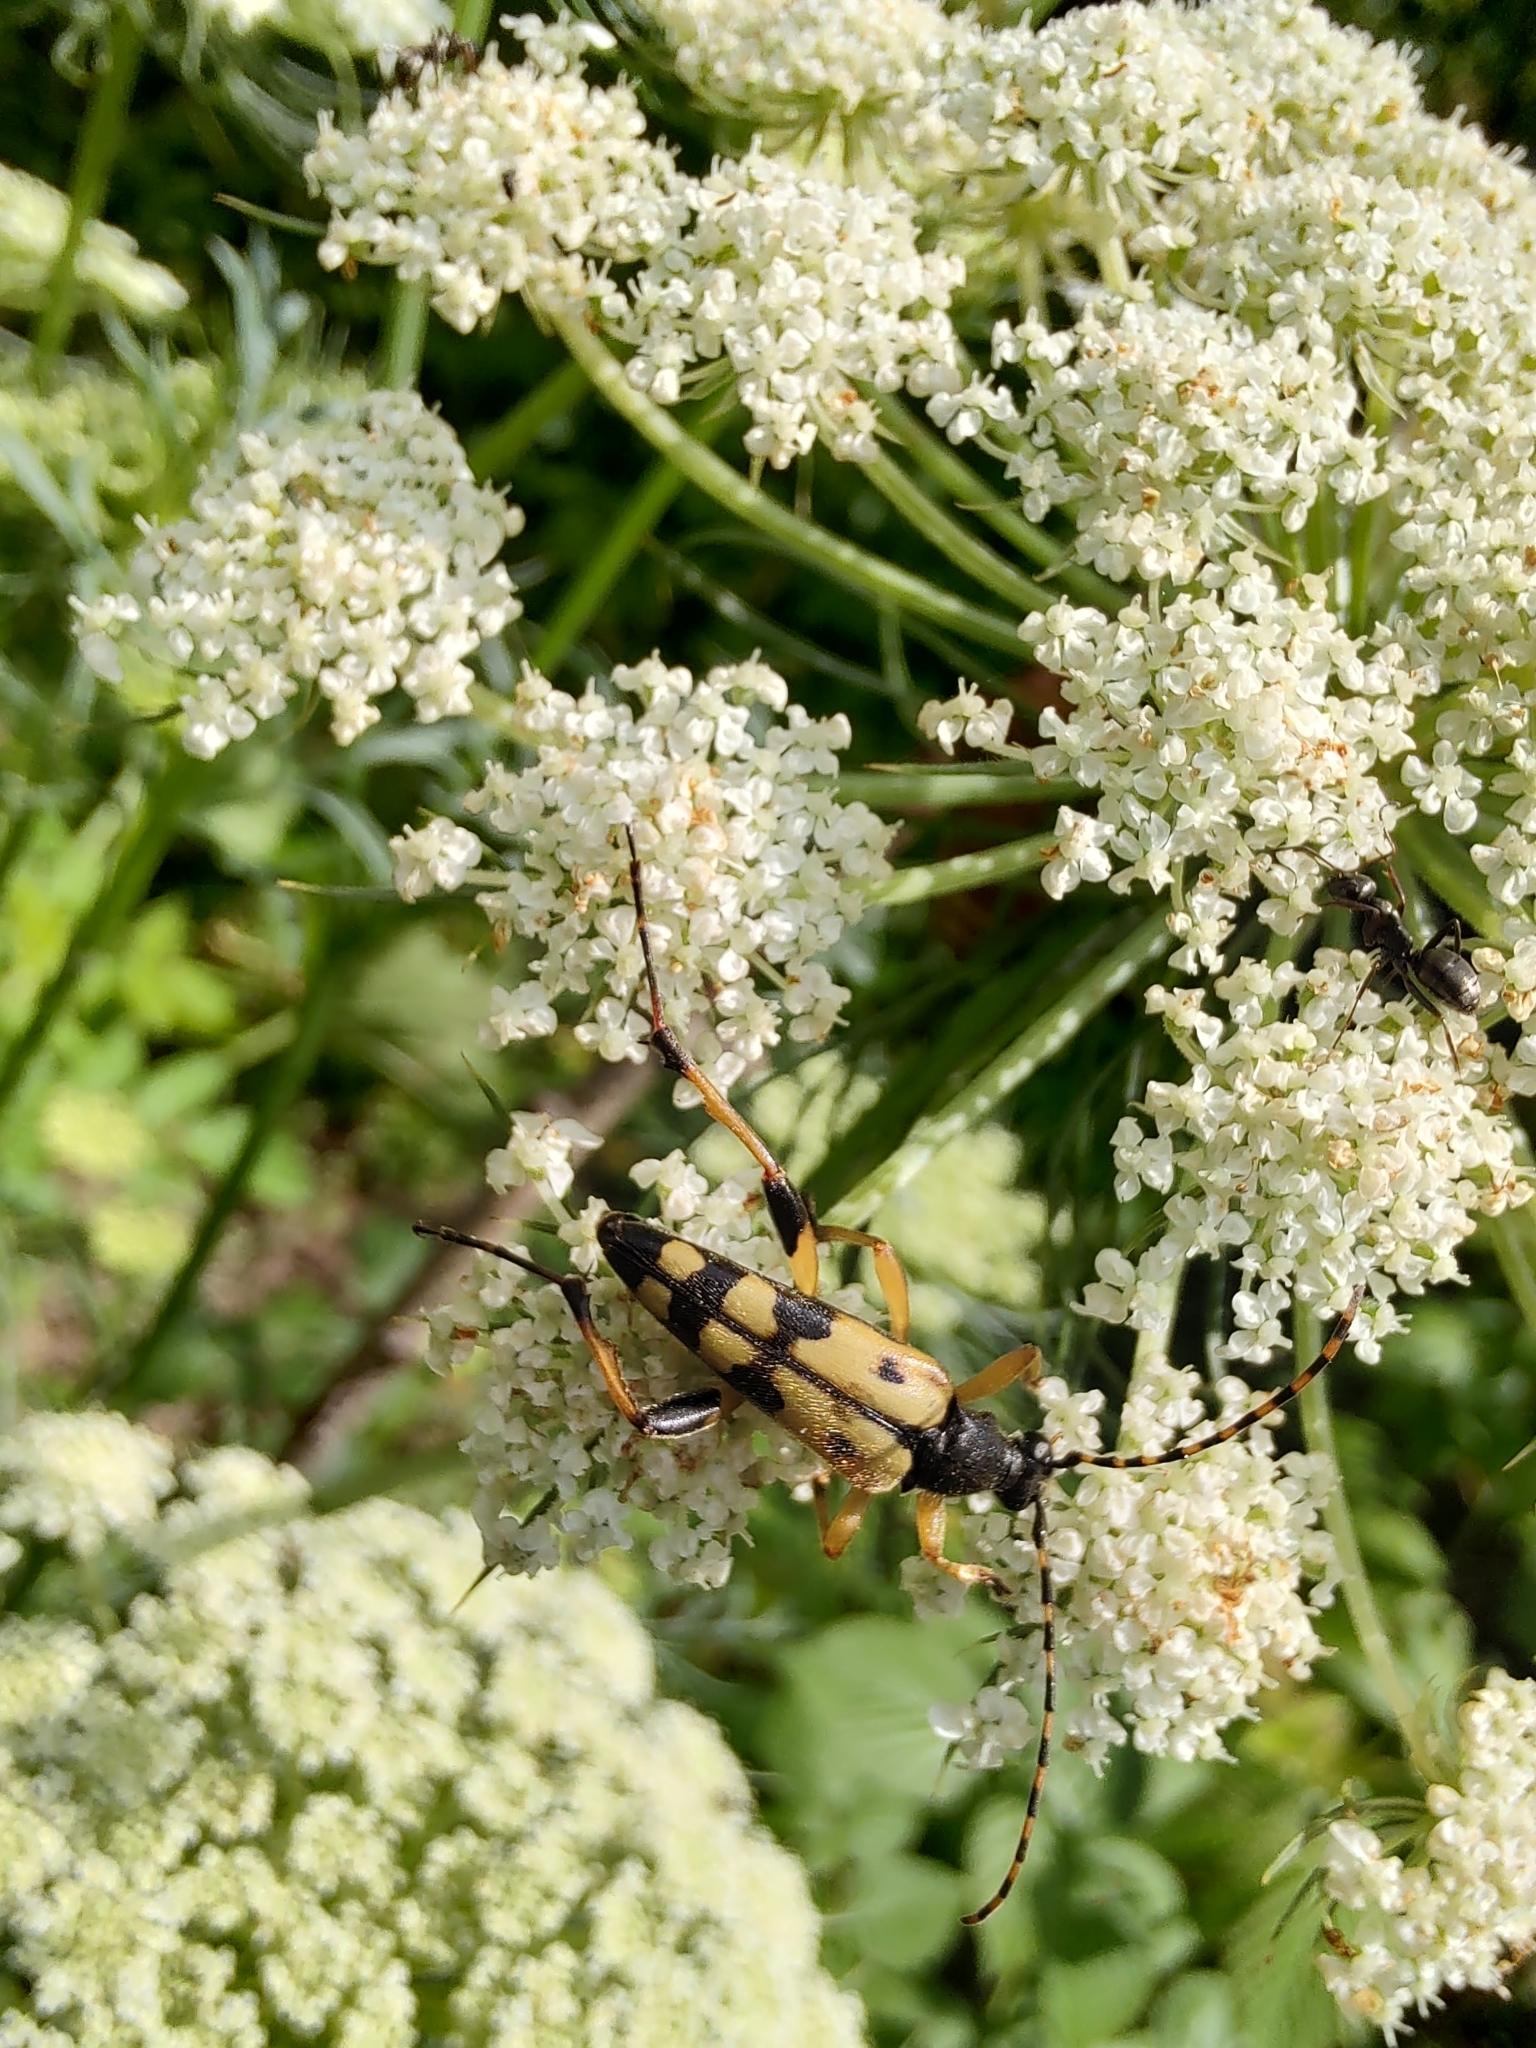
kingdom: Animalia
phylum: Arthropoda
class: Insecta
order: Coleoptera
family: Cerambycidae
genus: Rutpela
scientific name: Rutpela maculata
